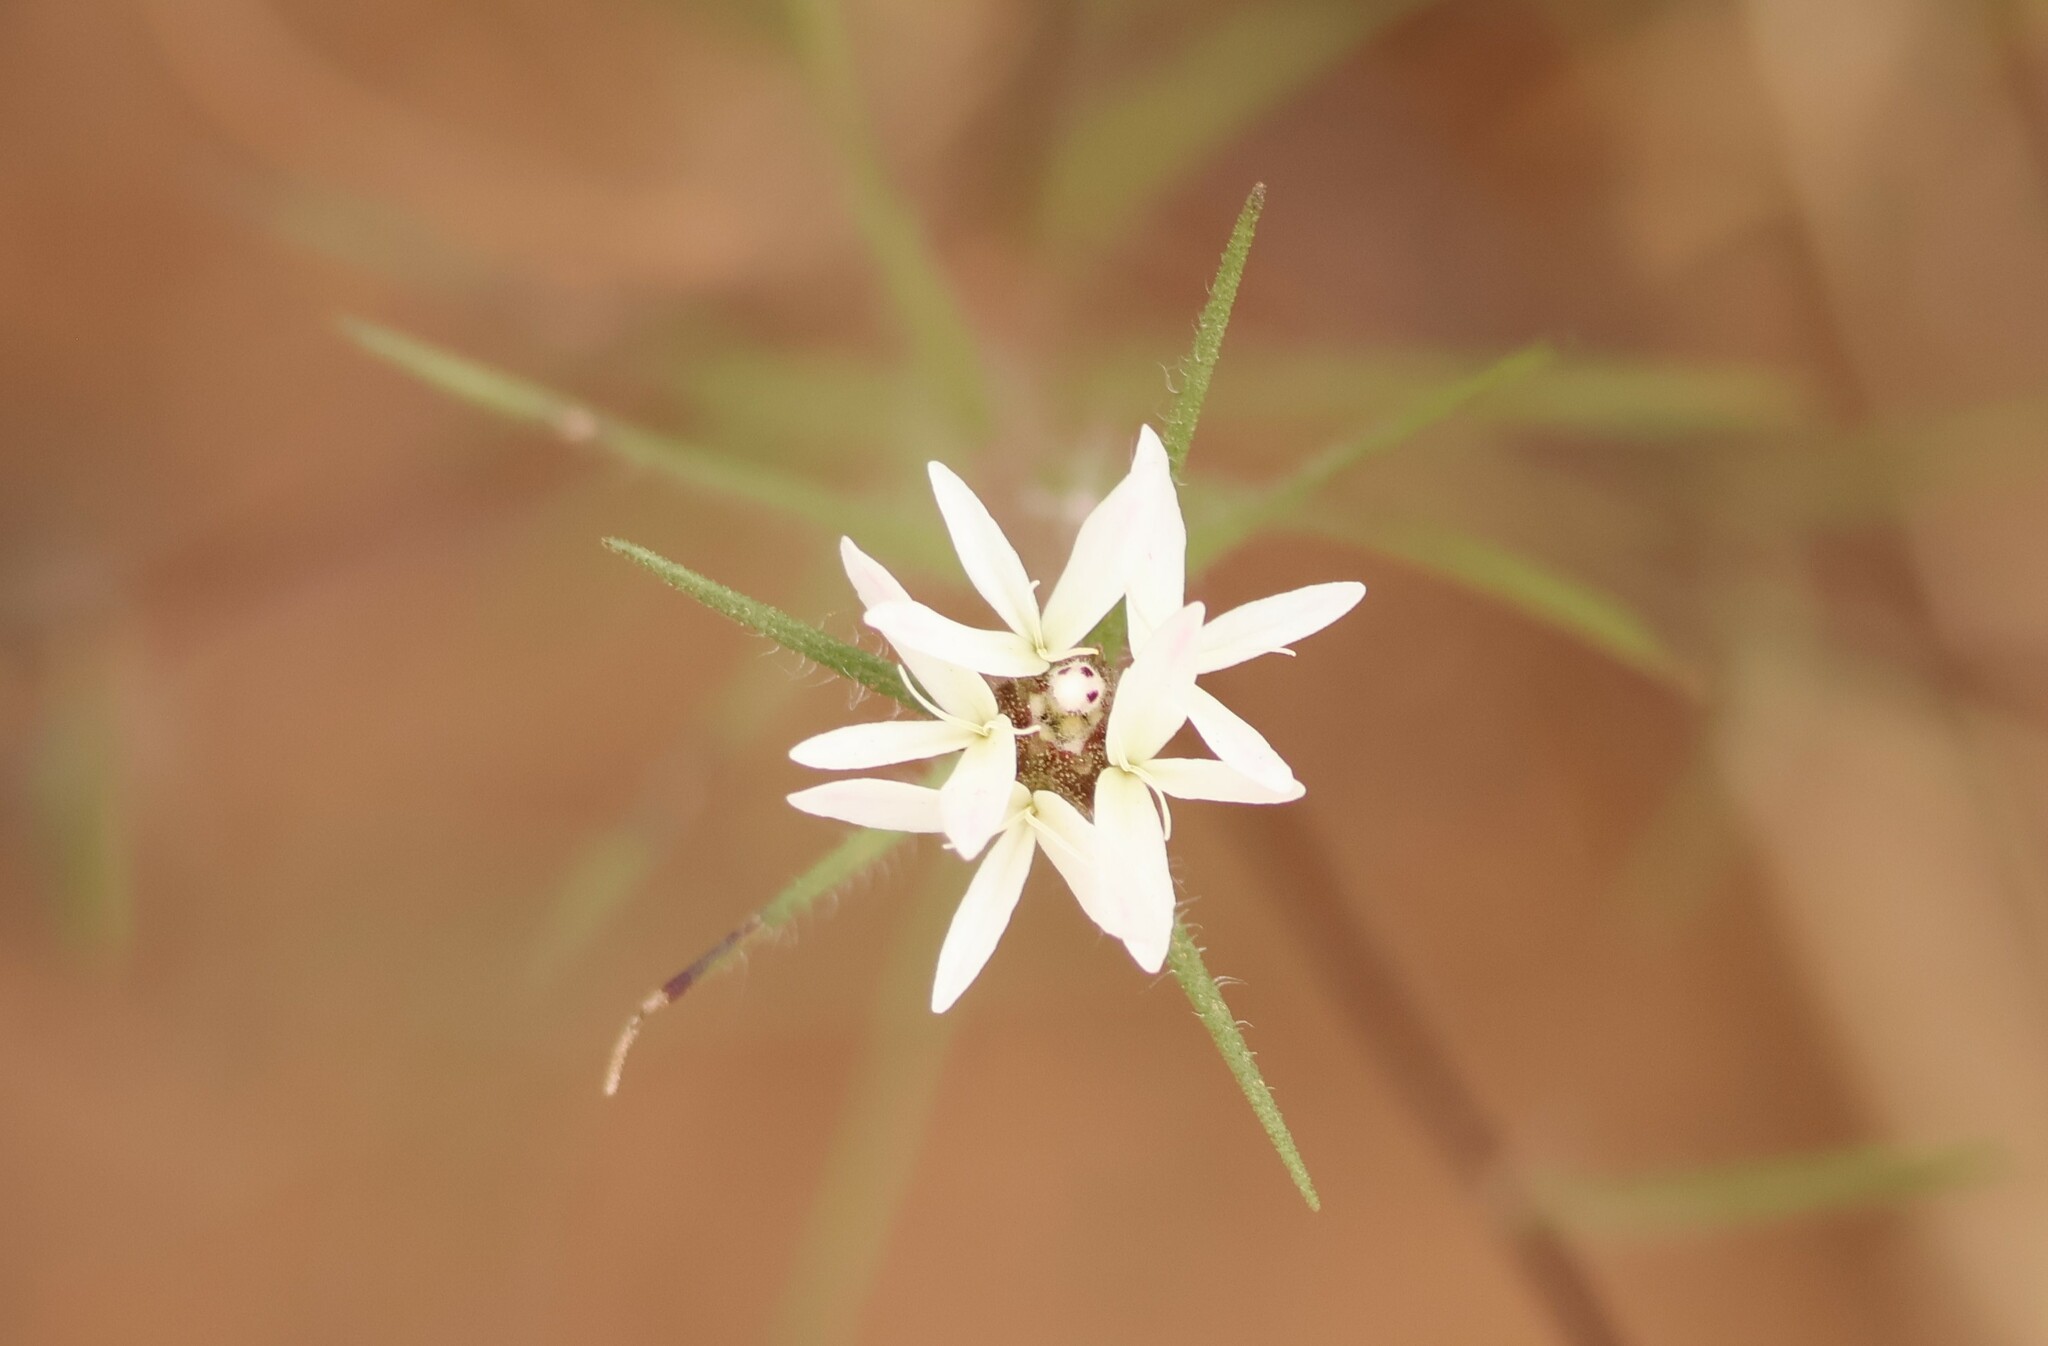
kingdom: Plantae
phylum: Tracheophyta
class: Magnoliopsida
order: Asterales
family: Asteraceae
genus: Osmadenia
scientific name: Osmadenia tenella
